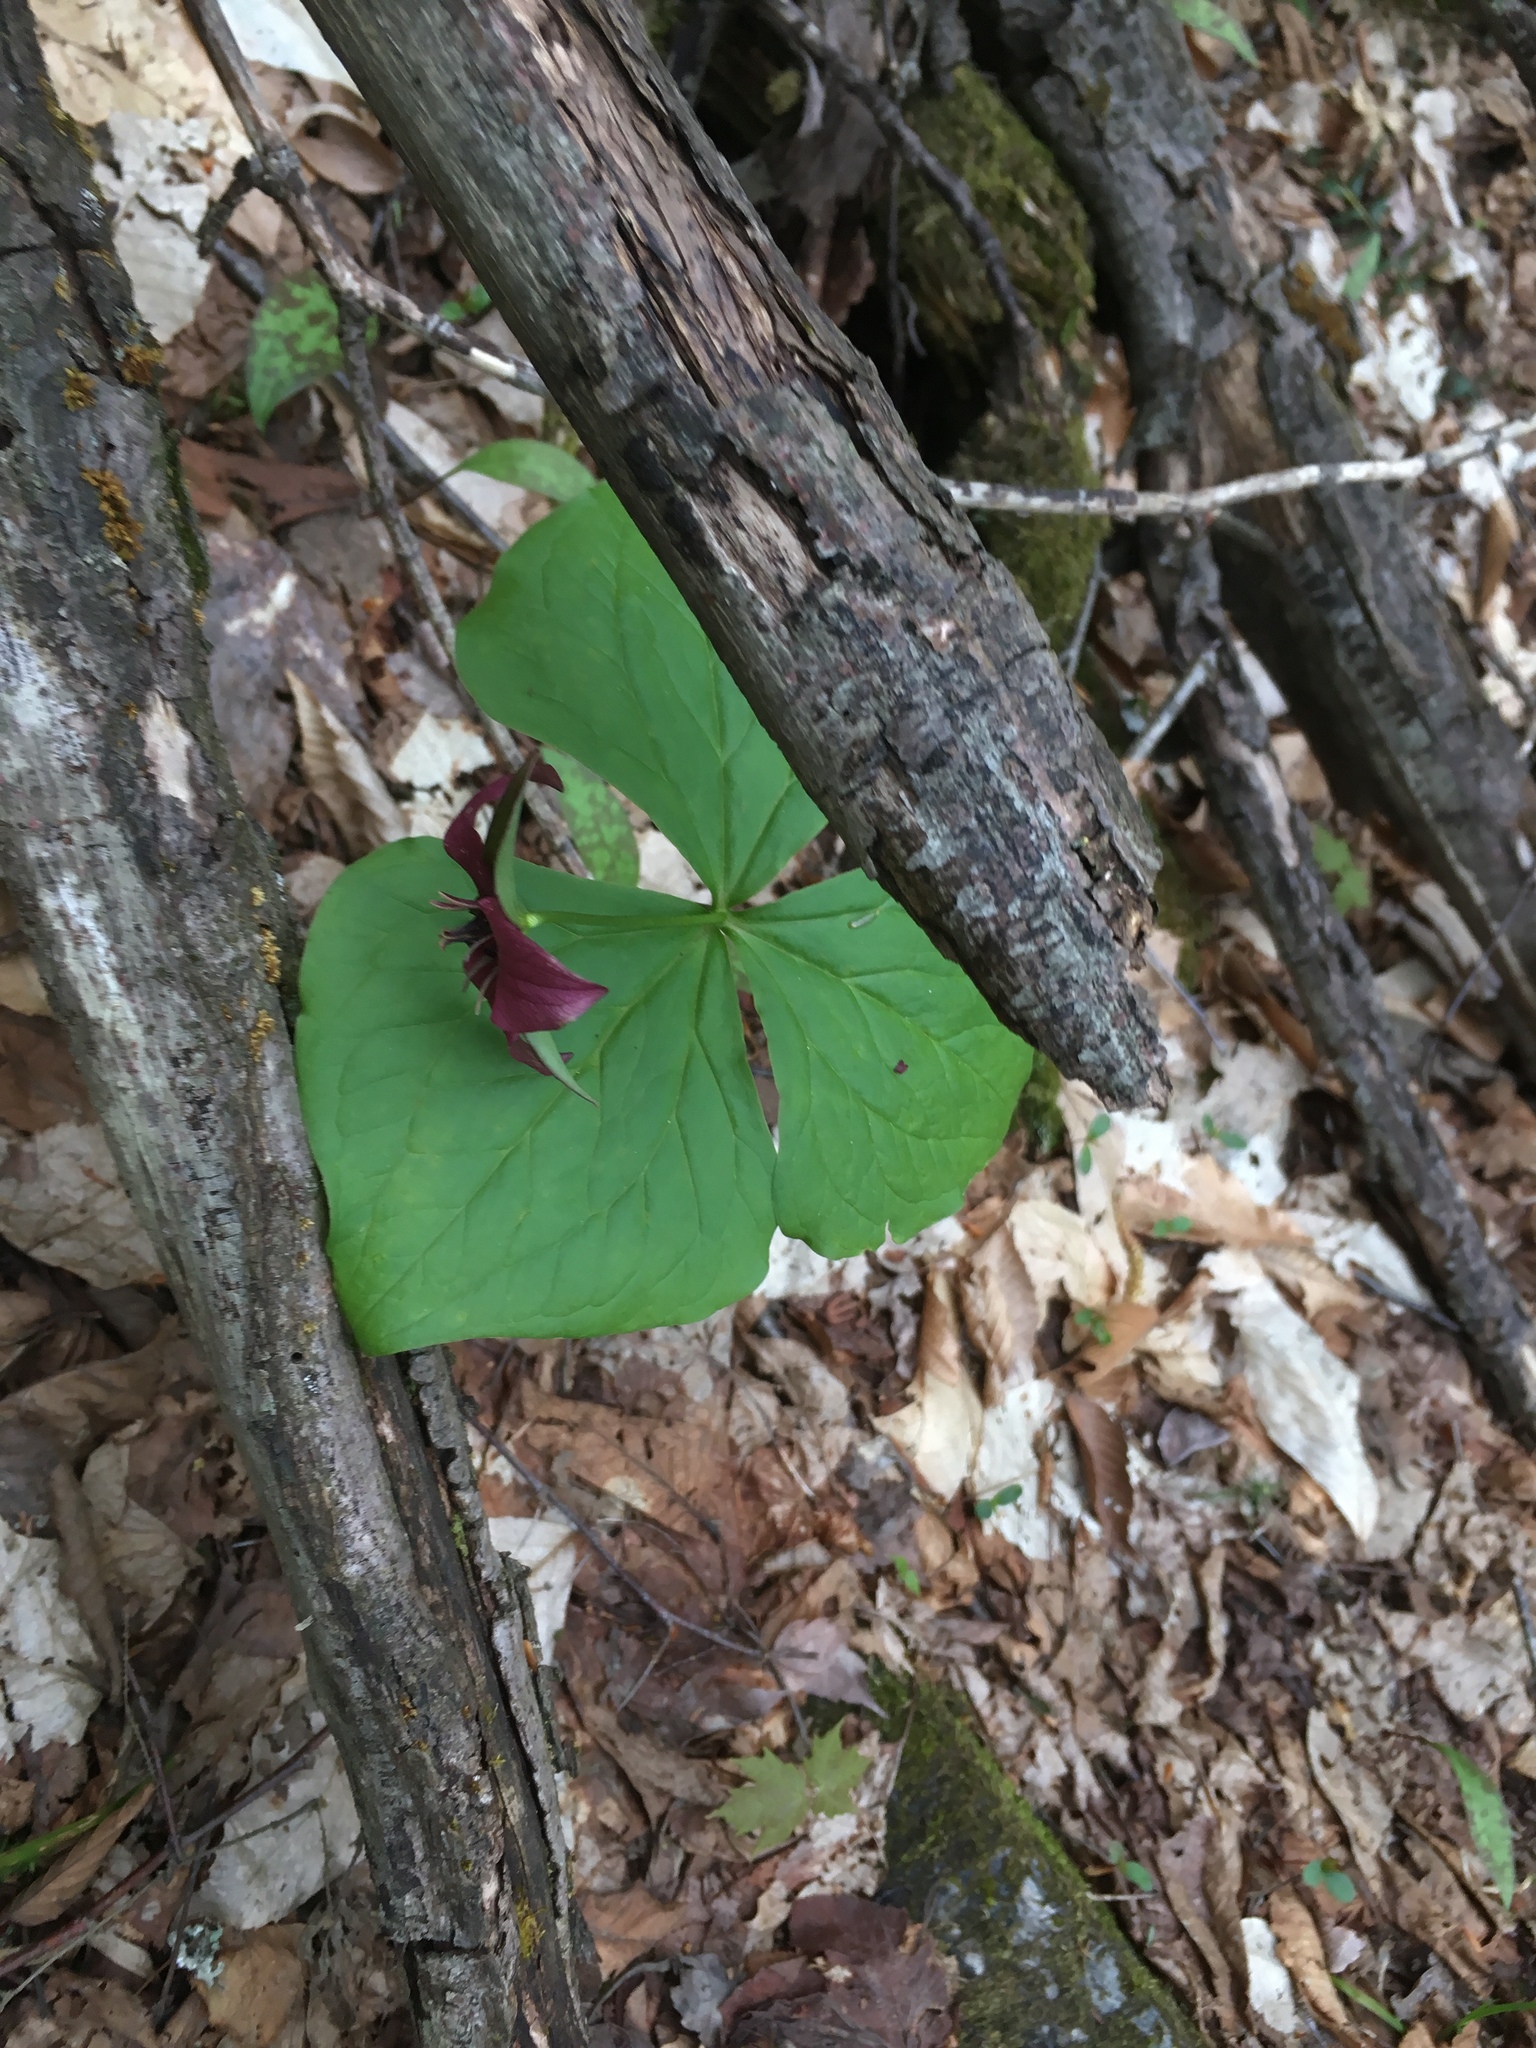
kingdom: Plantae
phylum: Tracheophyta
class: Liliopsida
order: Liliales
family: Melanthiaceae
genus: Trillium
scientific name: Trillium erectum
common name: Purple trillium
